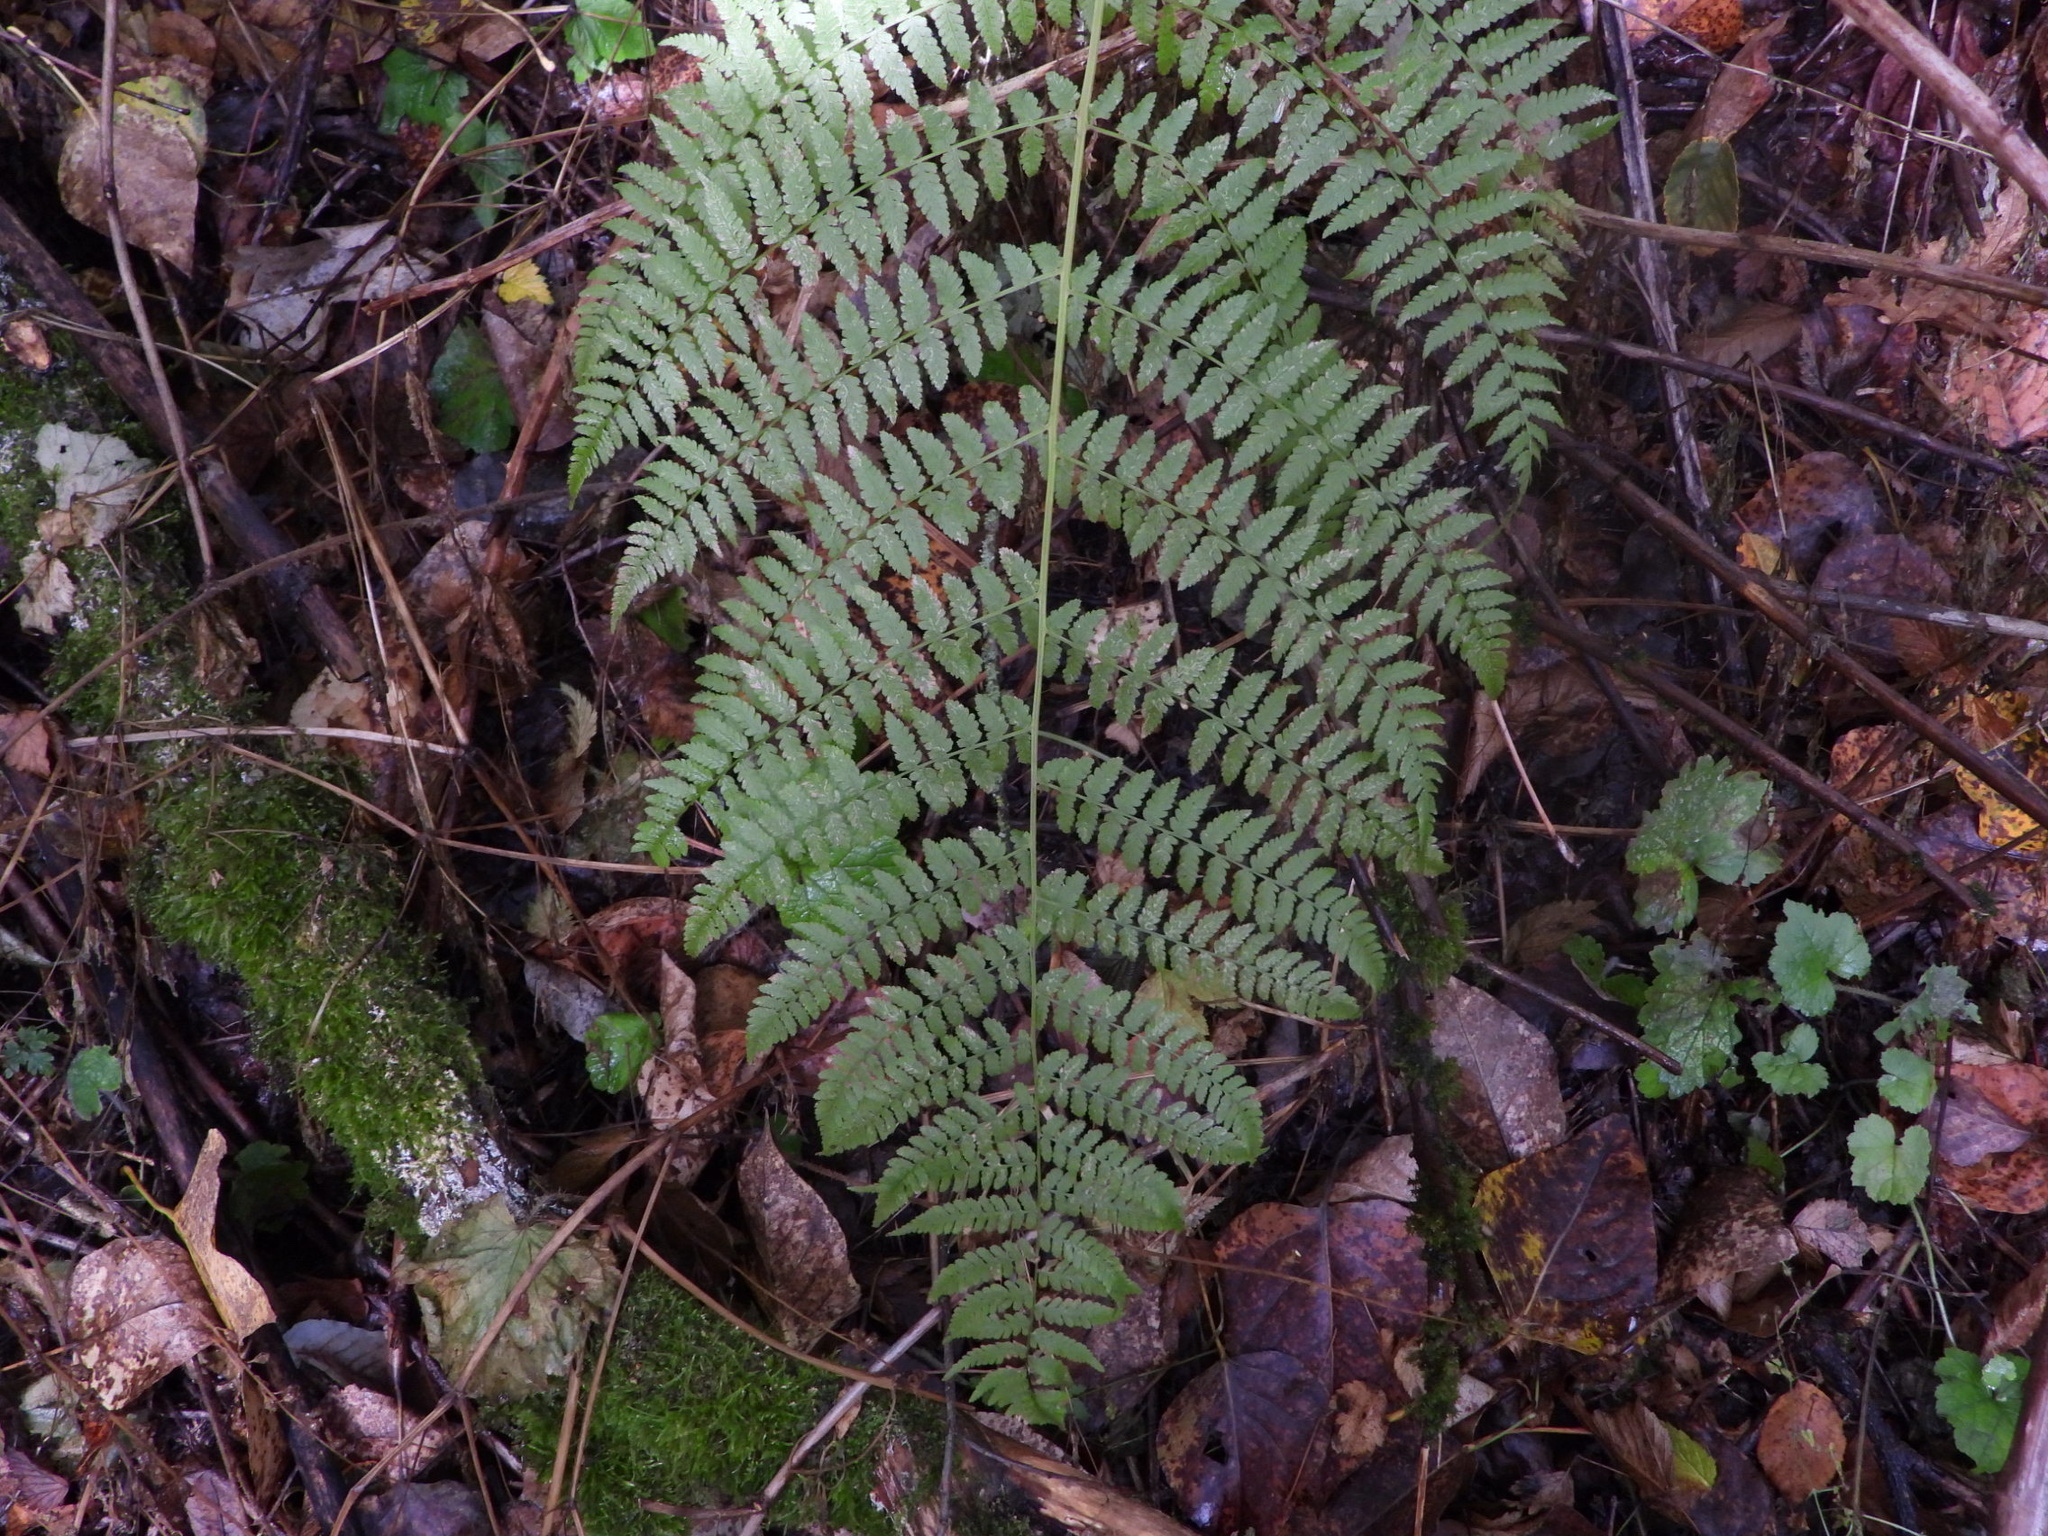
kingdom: Plantae
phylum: Tracheophyta
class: Polypodiopsida
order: Polypodiales
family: Athyriaceae
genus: Athyrium
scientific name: Athyrium filix-femina
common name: Lady fern
